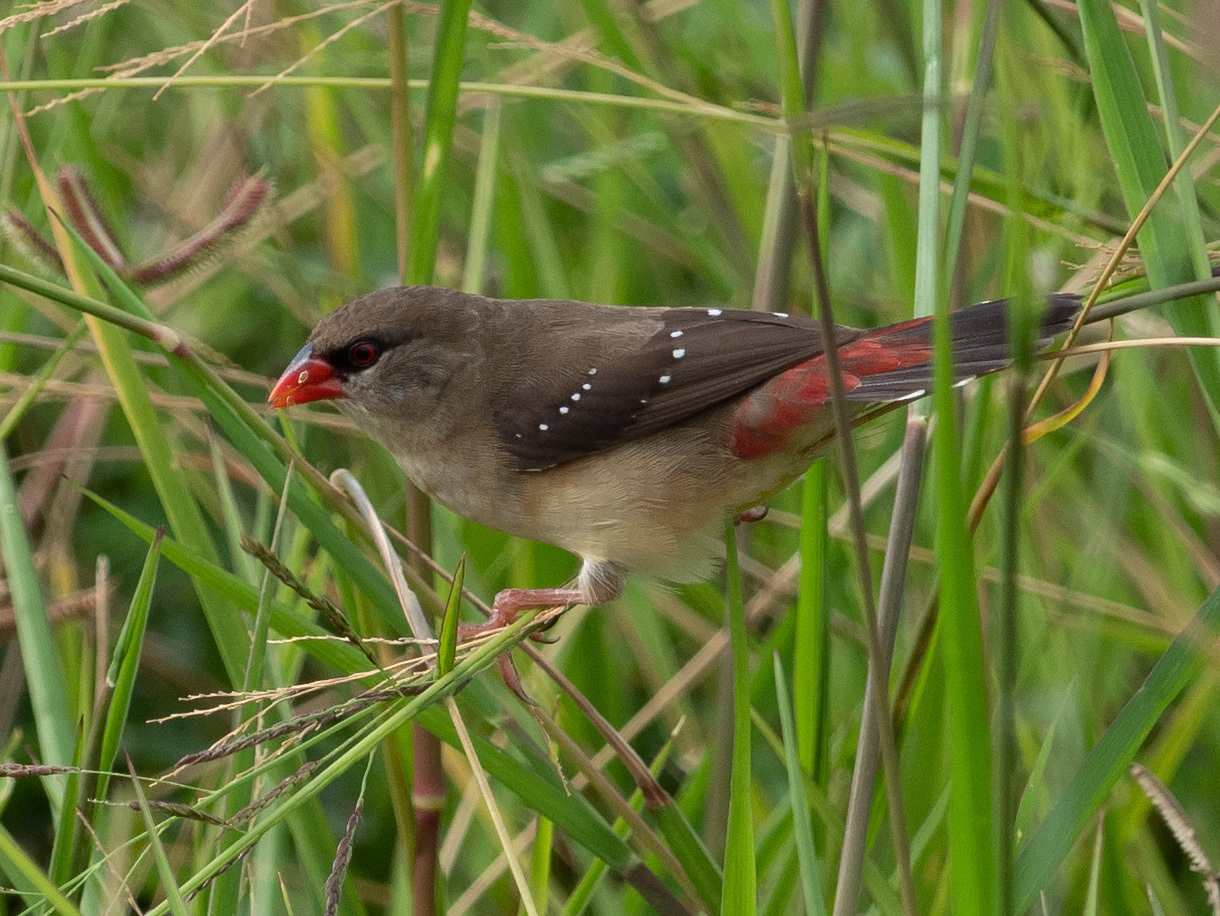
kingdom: Animalia
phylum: Chordata
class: Aves
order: Passeriformes
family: Estrildidae
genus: Amandava
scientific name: Amandava amandava
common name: Red avadavat
